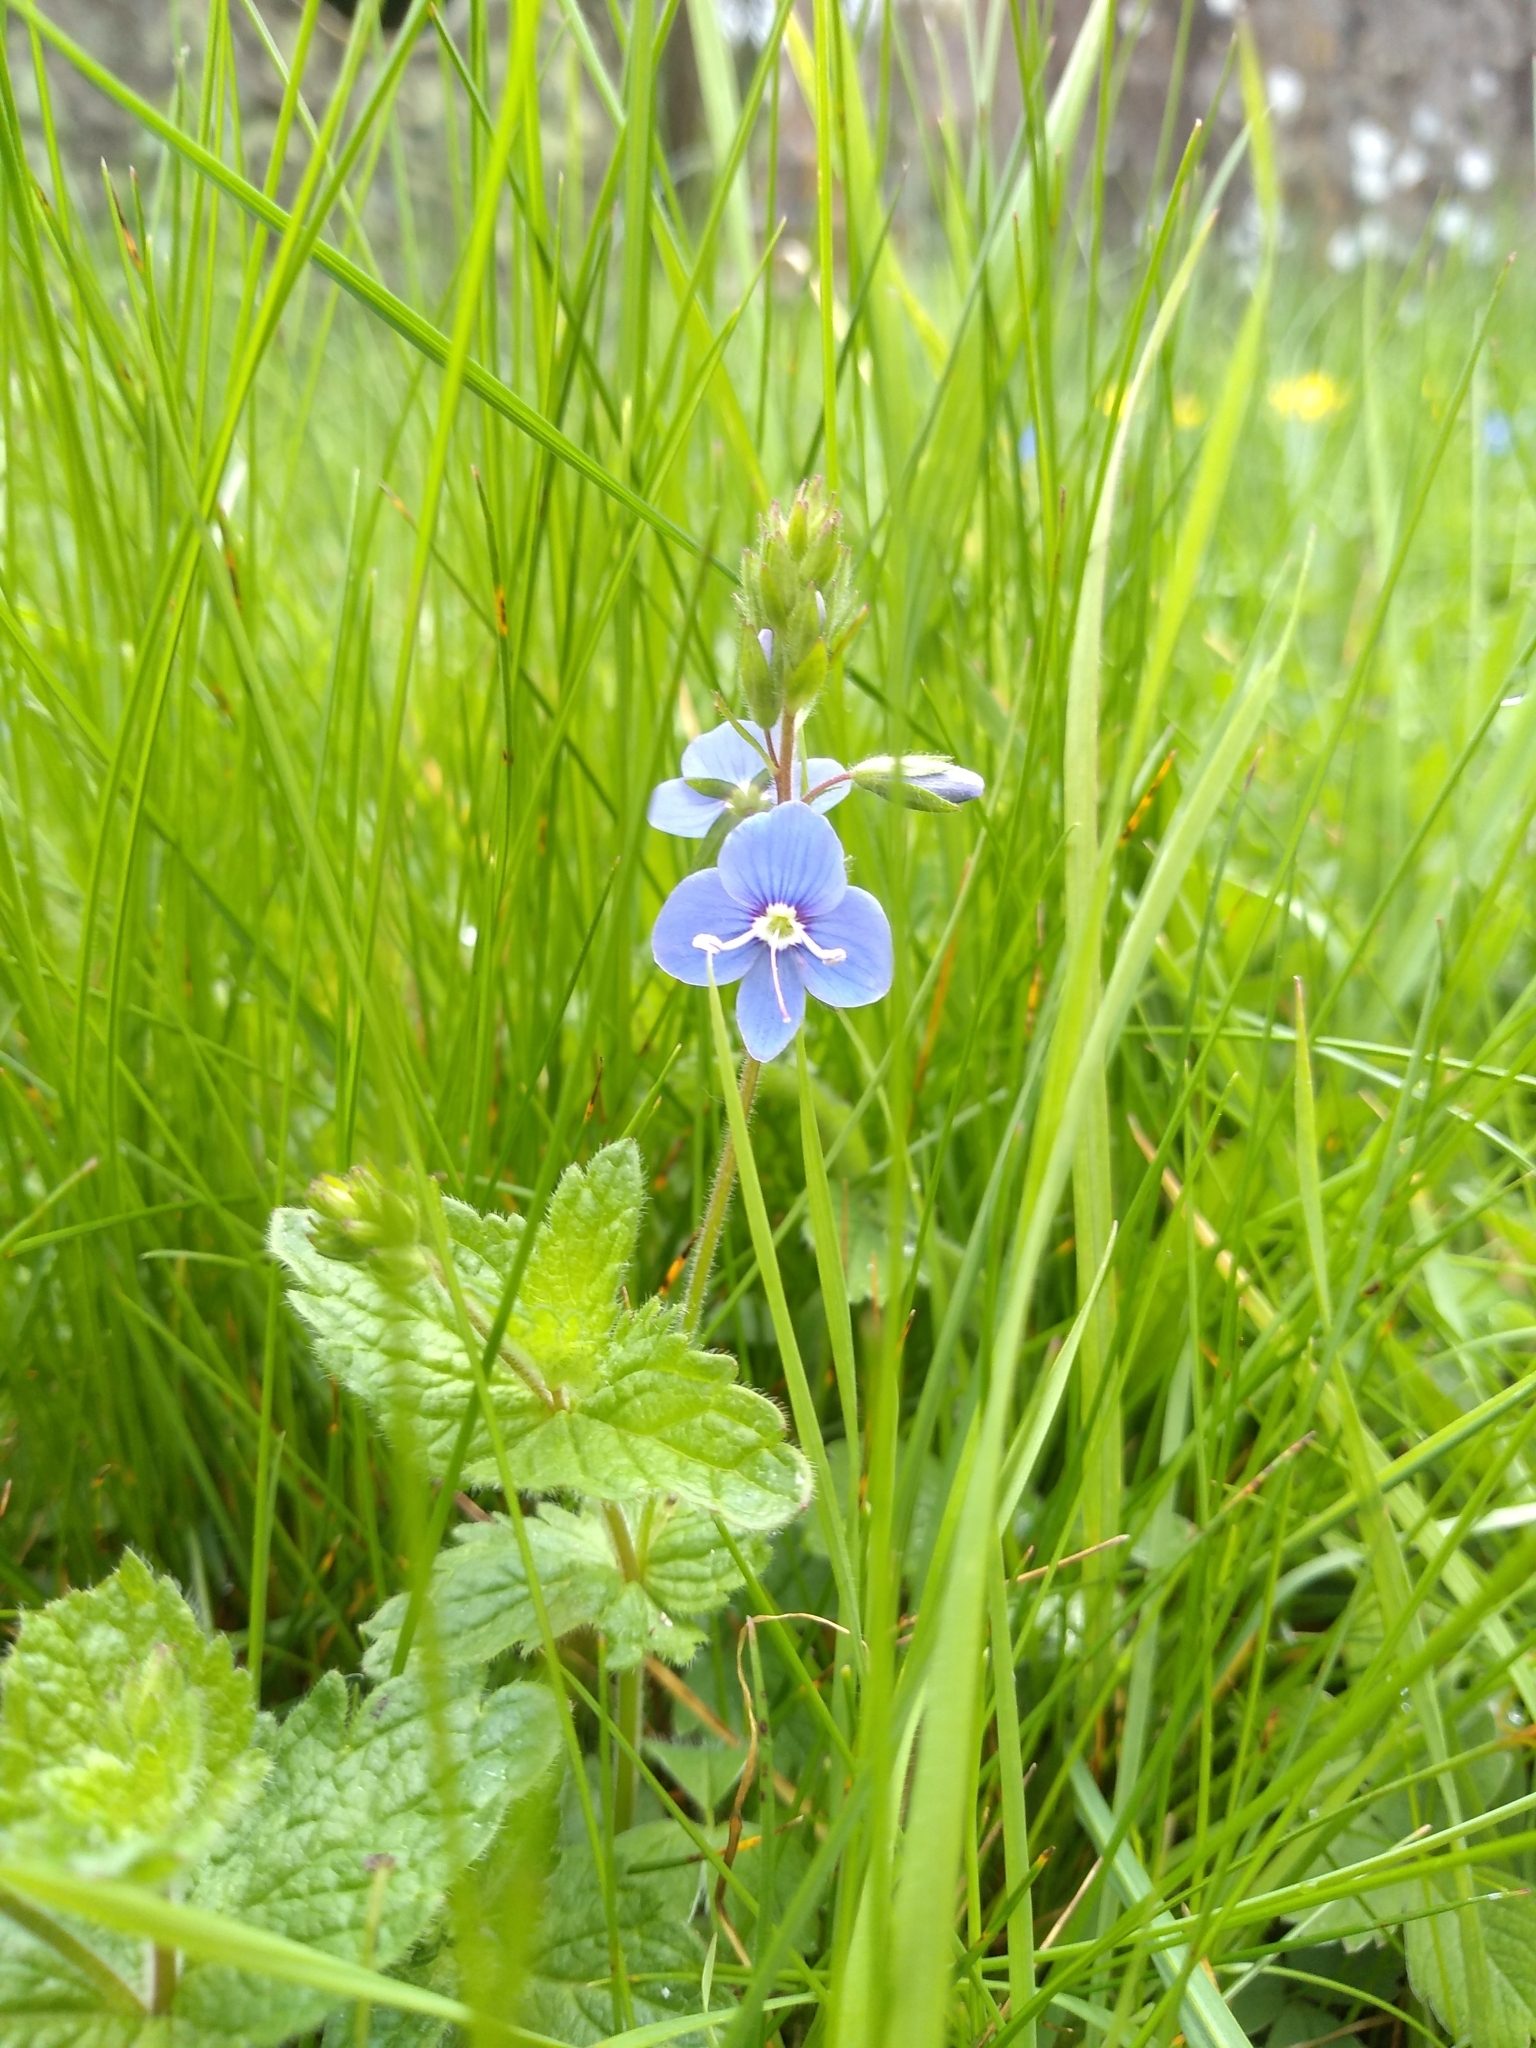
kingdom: Plantae
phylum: Tracheophyta
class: Magnoliopsida
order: Lamiales
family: Plantaginaceae
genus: Veronica
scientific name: Veronica chamaedrys
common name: Germander speedwell
